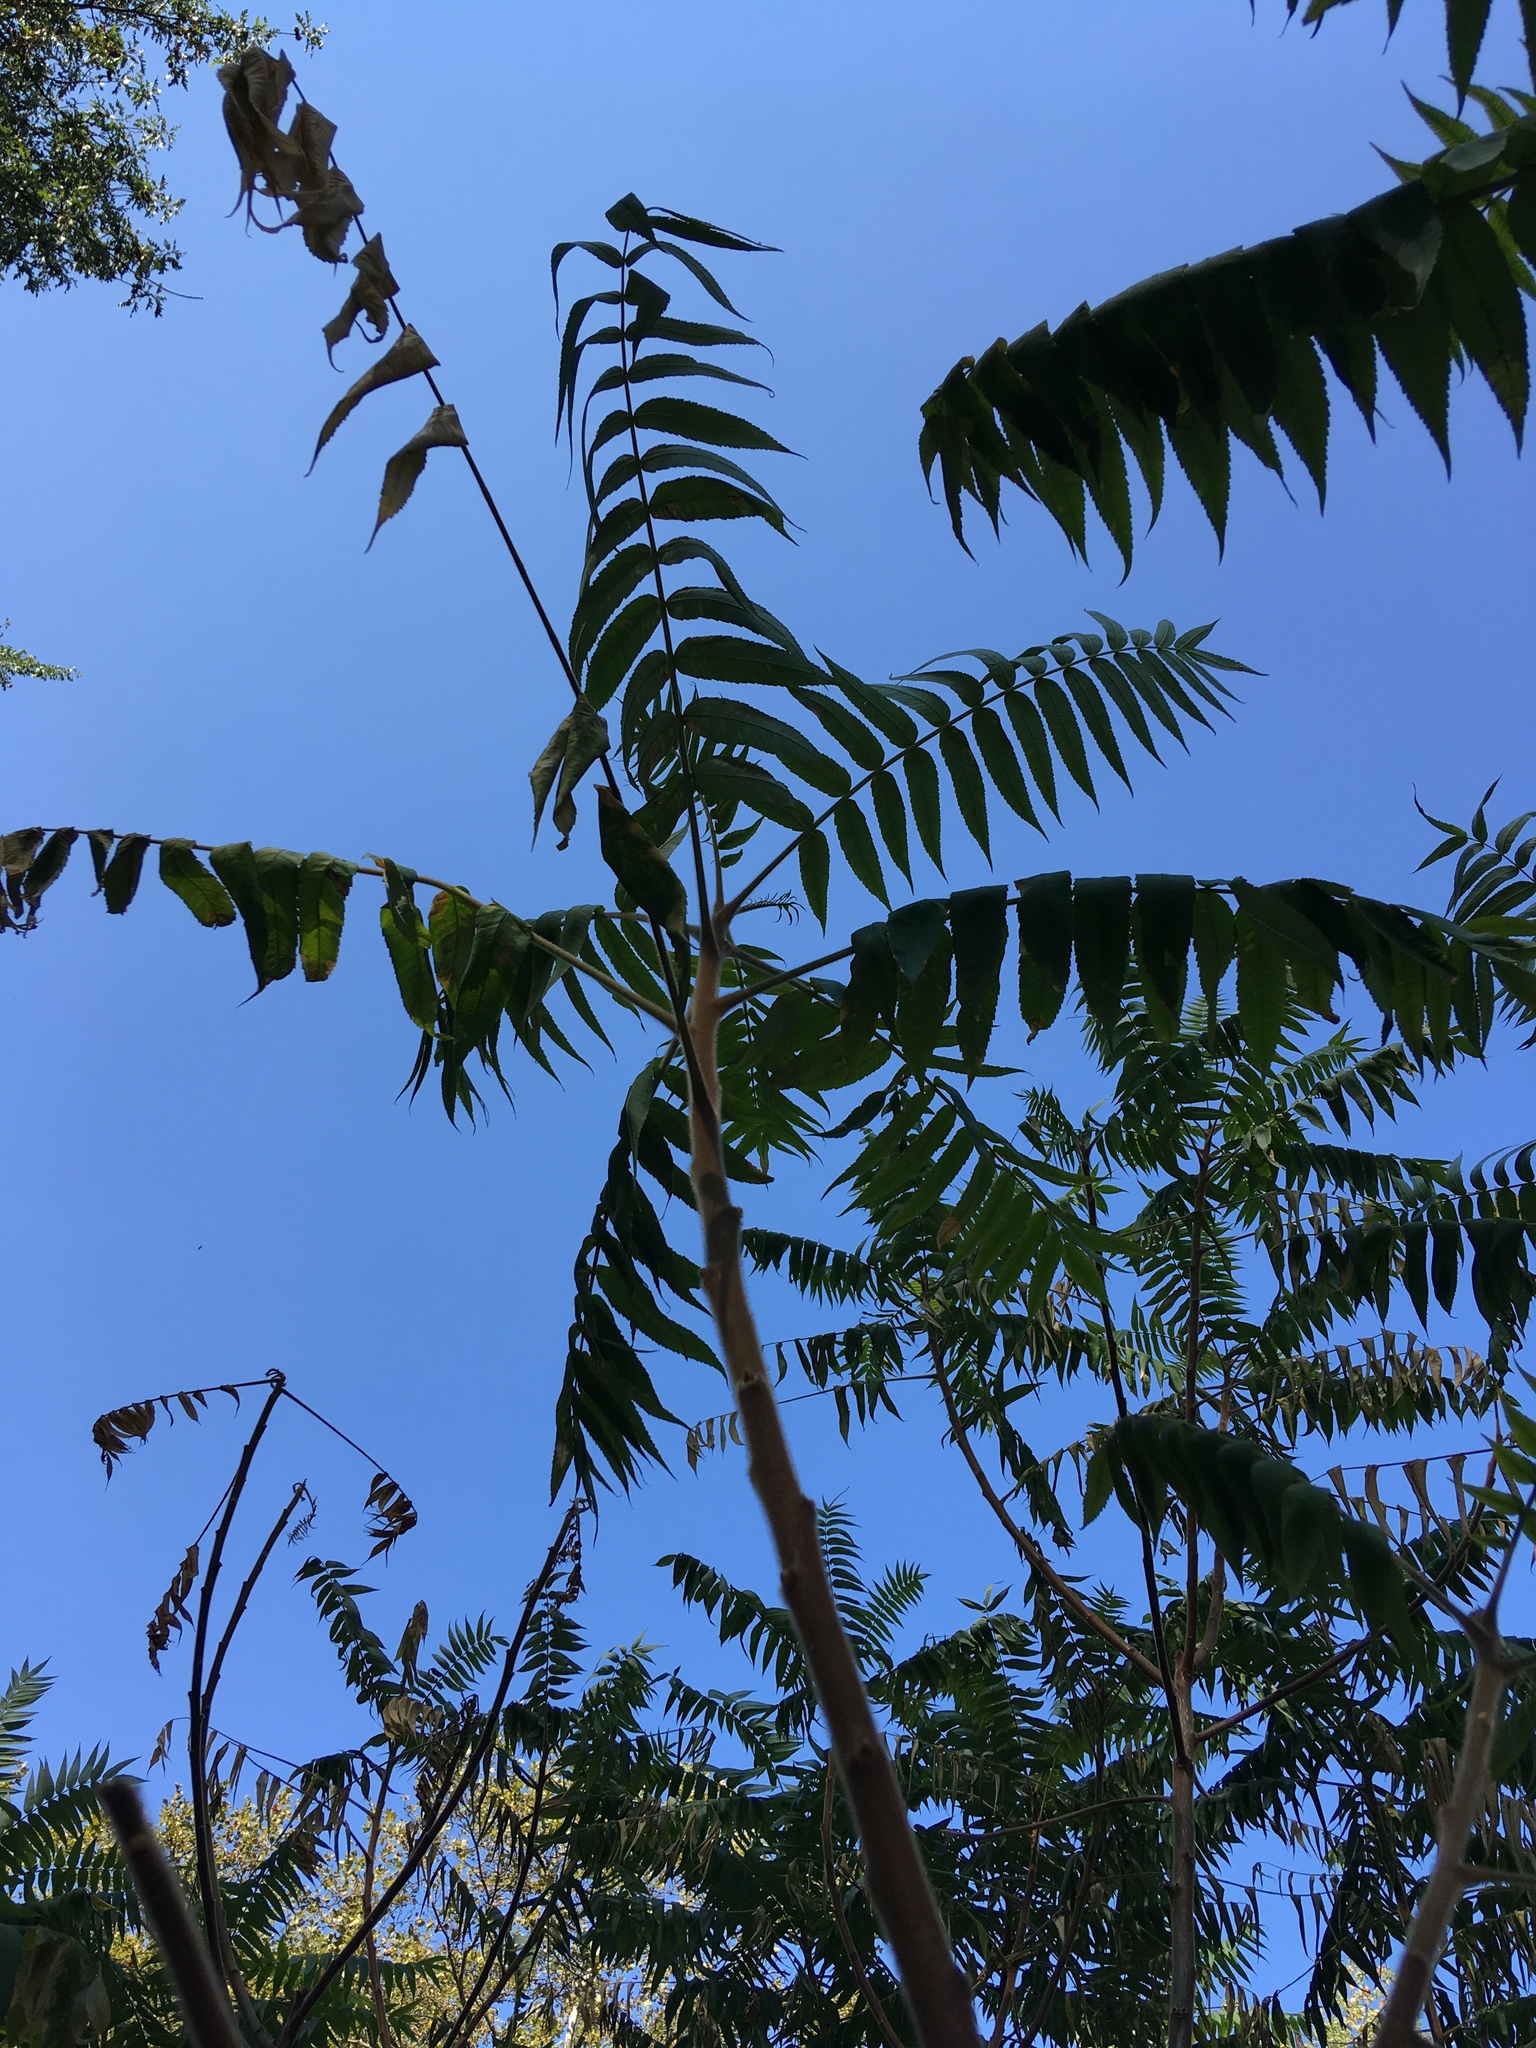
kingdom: Plantae
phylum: Tracheophyta
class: Magnoliopsida
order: Sapindales
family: Anacardiaceae
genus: Rhus
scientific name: Rhus typhina
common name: Staghorn sumac
